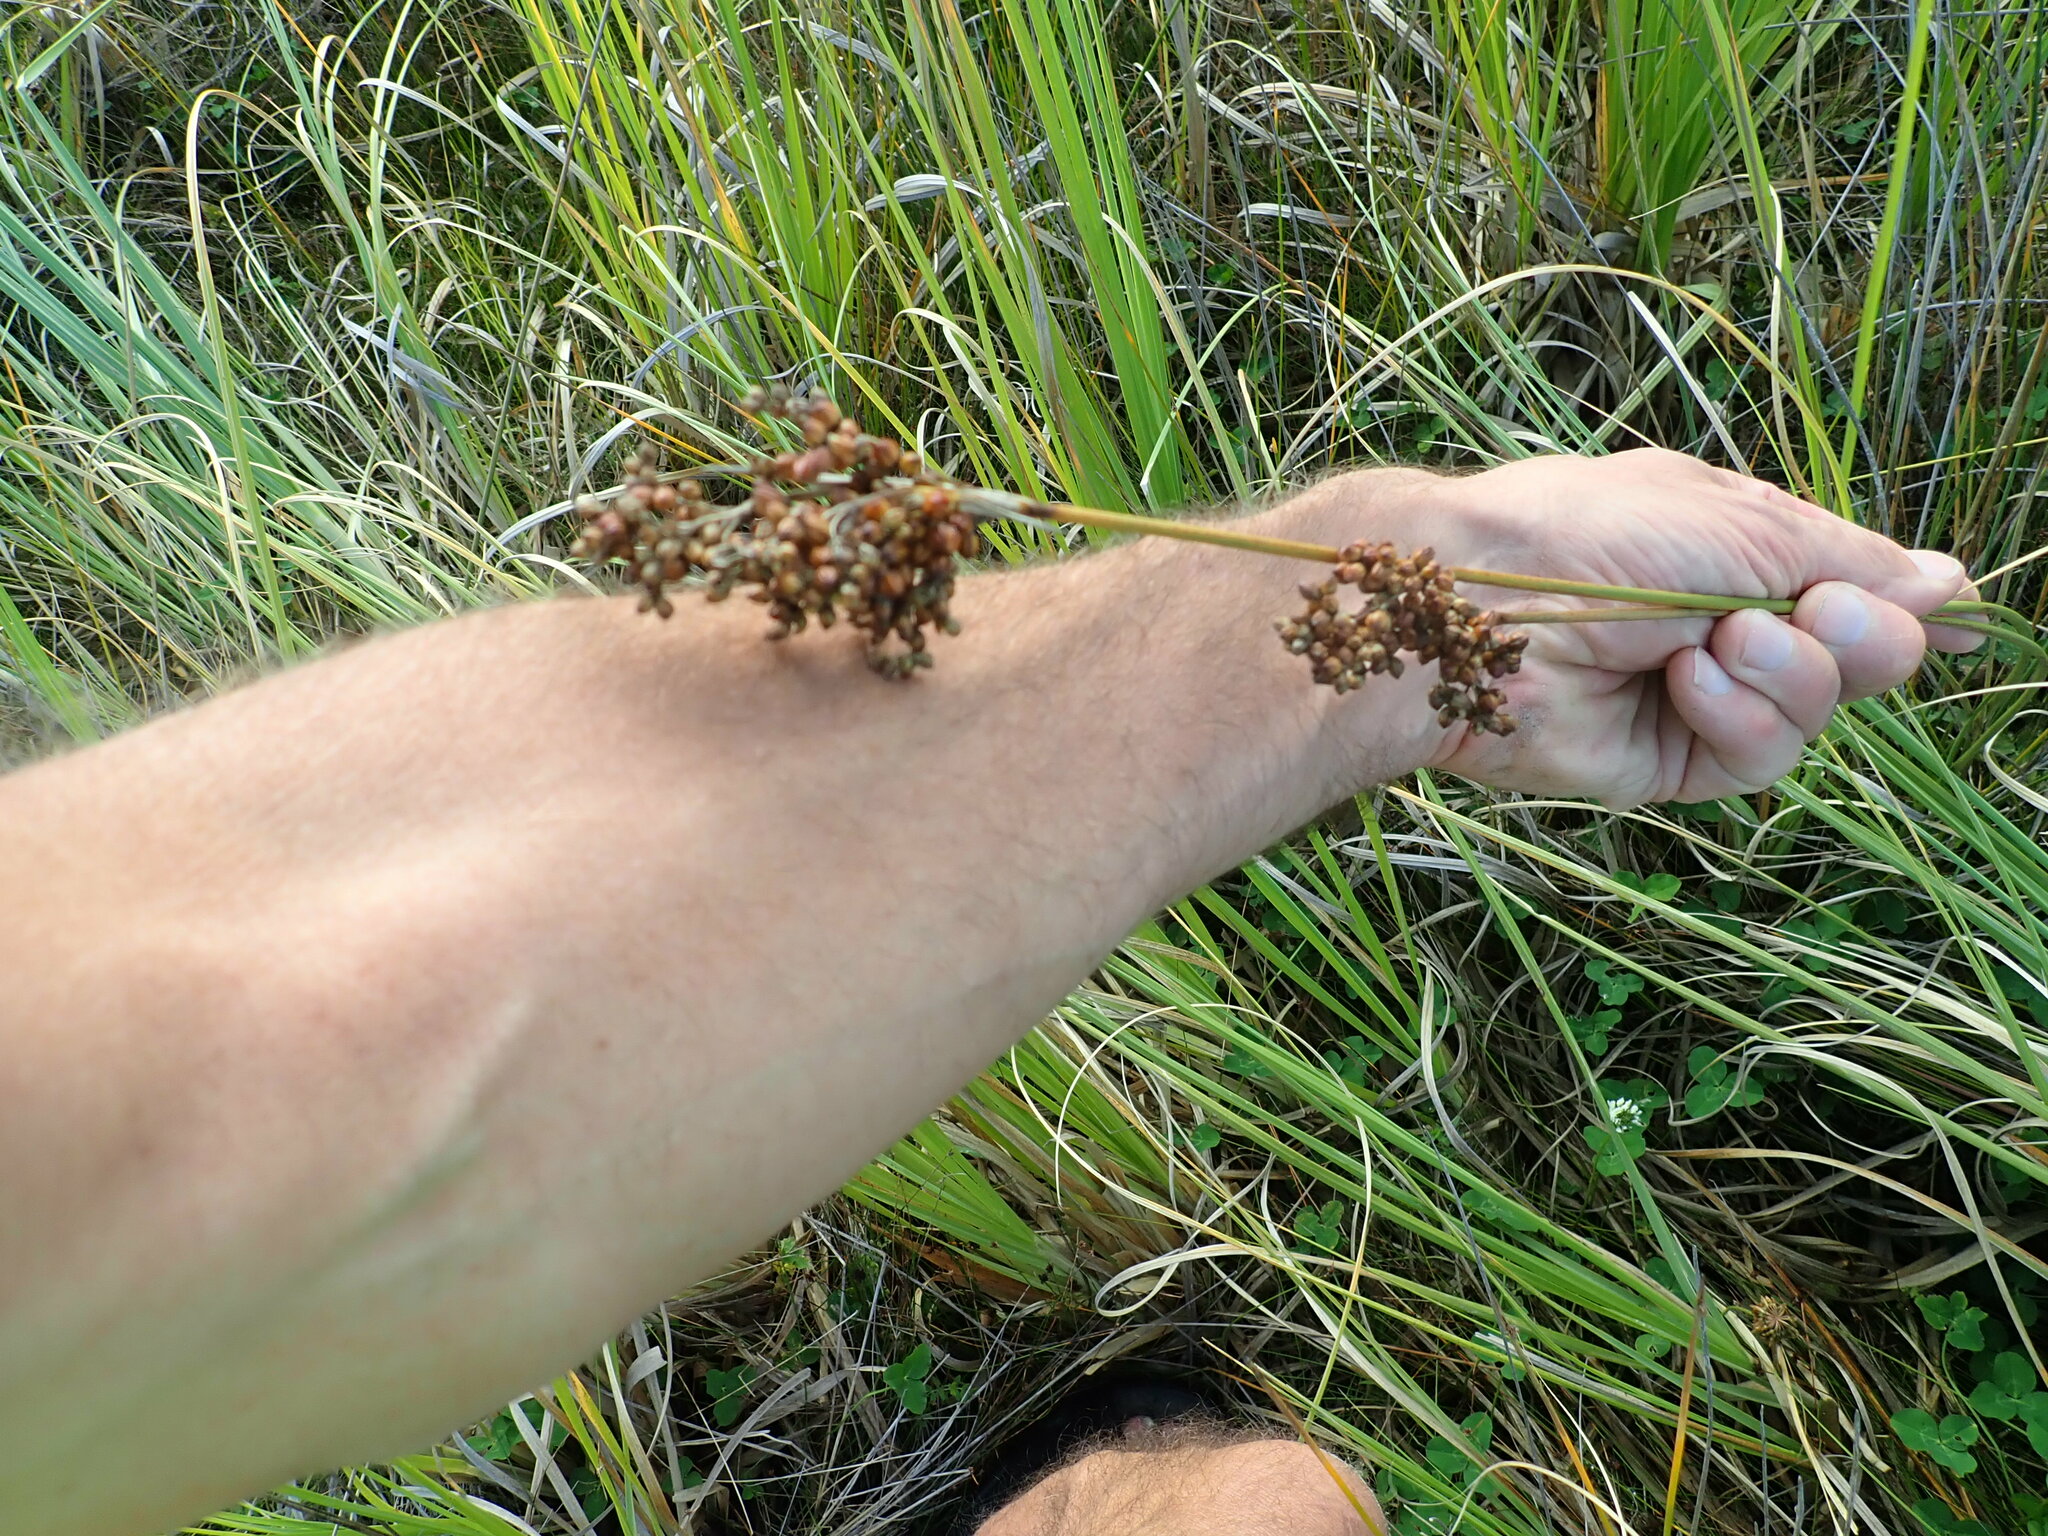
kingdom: Plantae
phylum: Tracheophyta
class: Liliopsida
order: Poales
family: Juncaceae
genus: Juncus
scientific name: Juncus acutus
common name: Sharp rush
